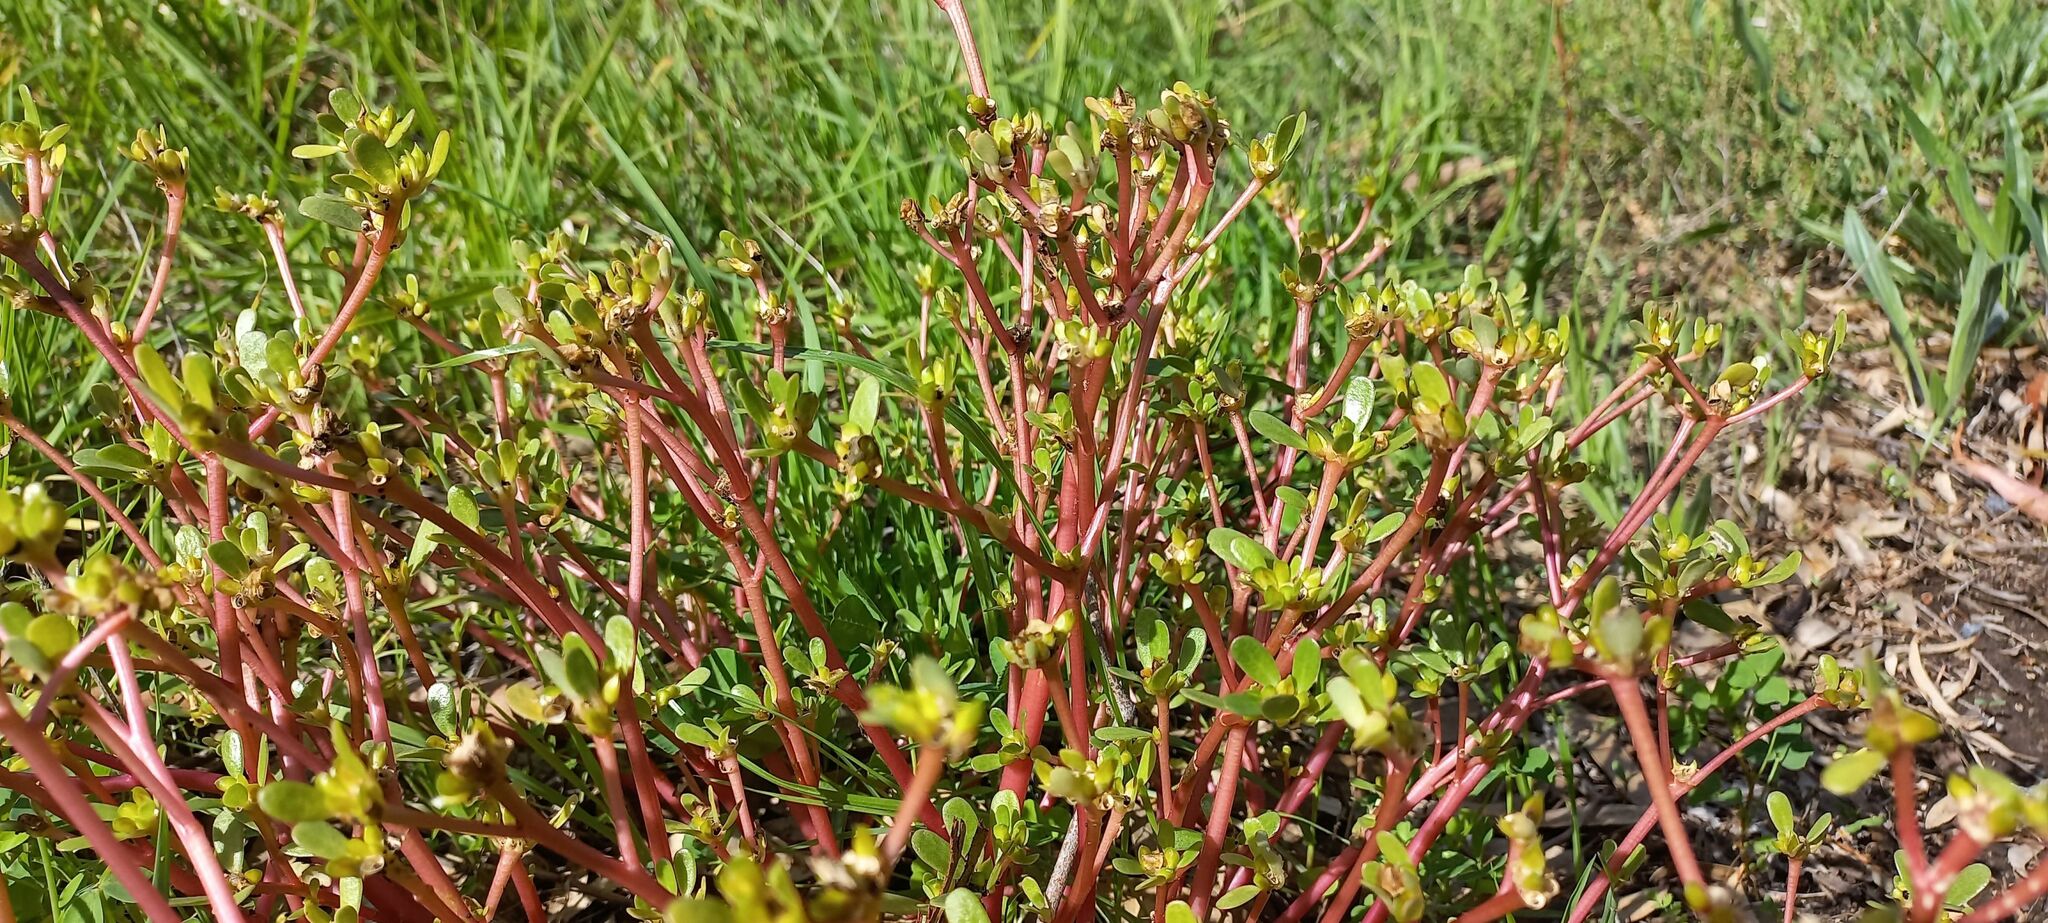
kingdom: Plantae
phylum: Tracheophyta
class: Magnoliopsida
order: Caryophyllales
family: Portulacaceae
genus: Portulaca
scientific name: Portulaca oleracea
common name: Common purslane
